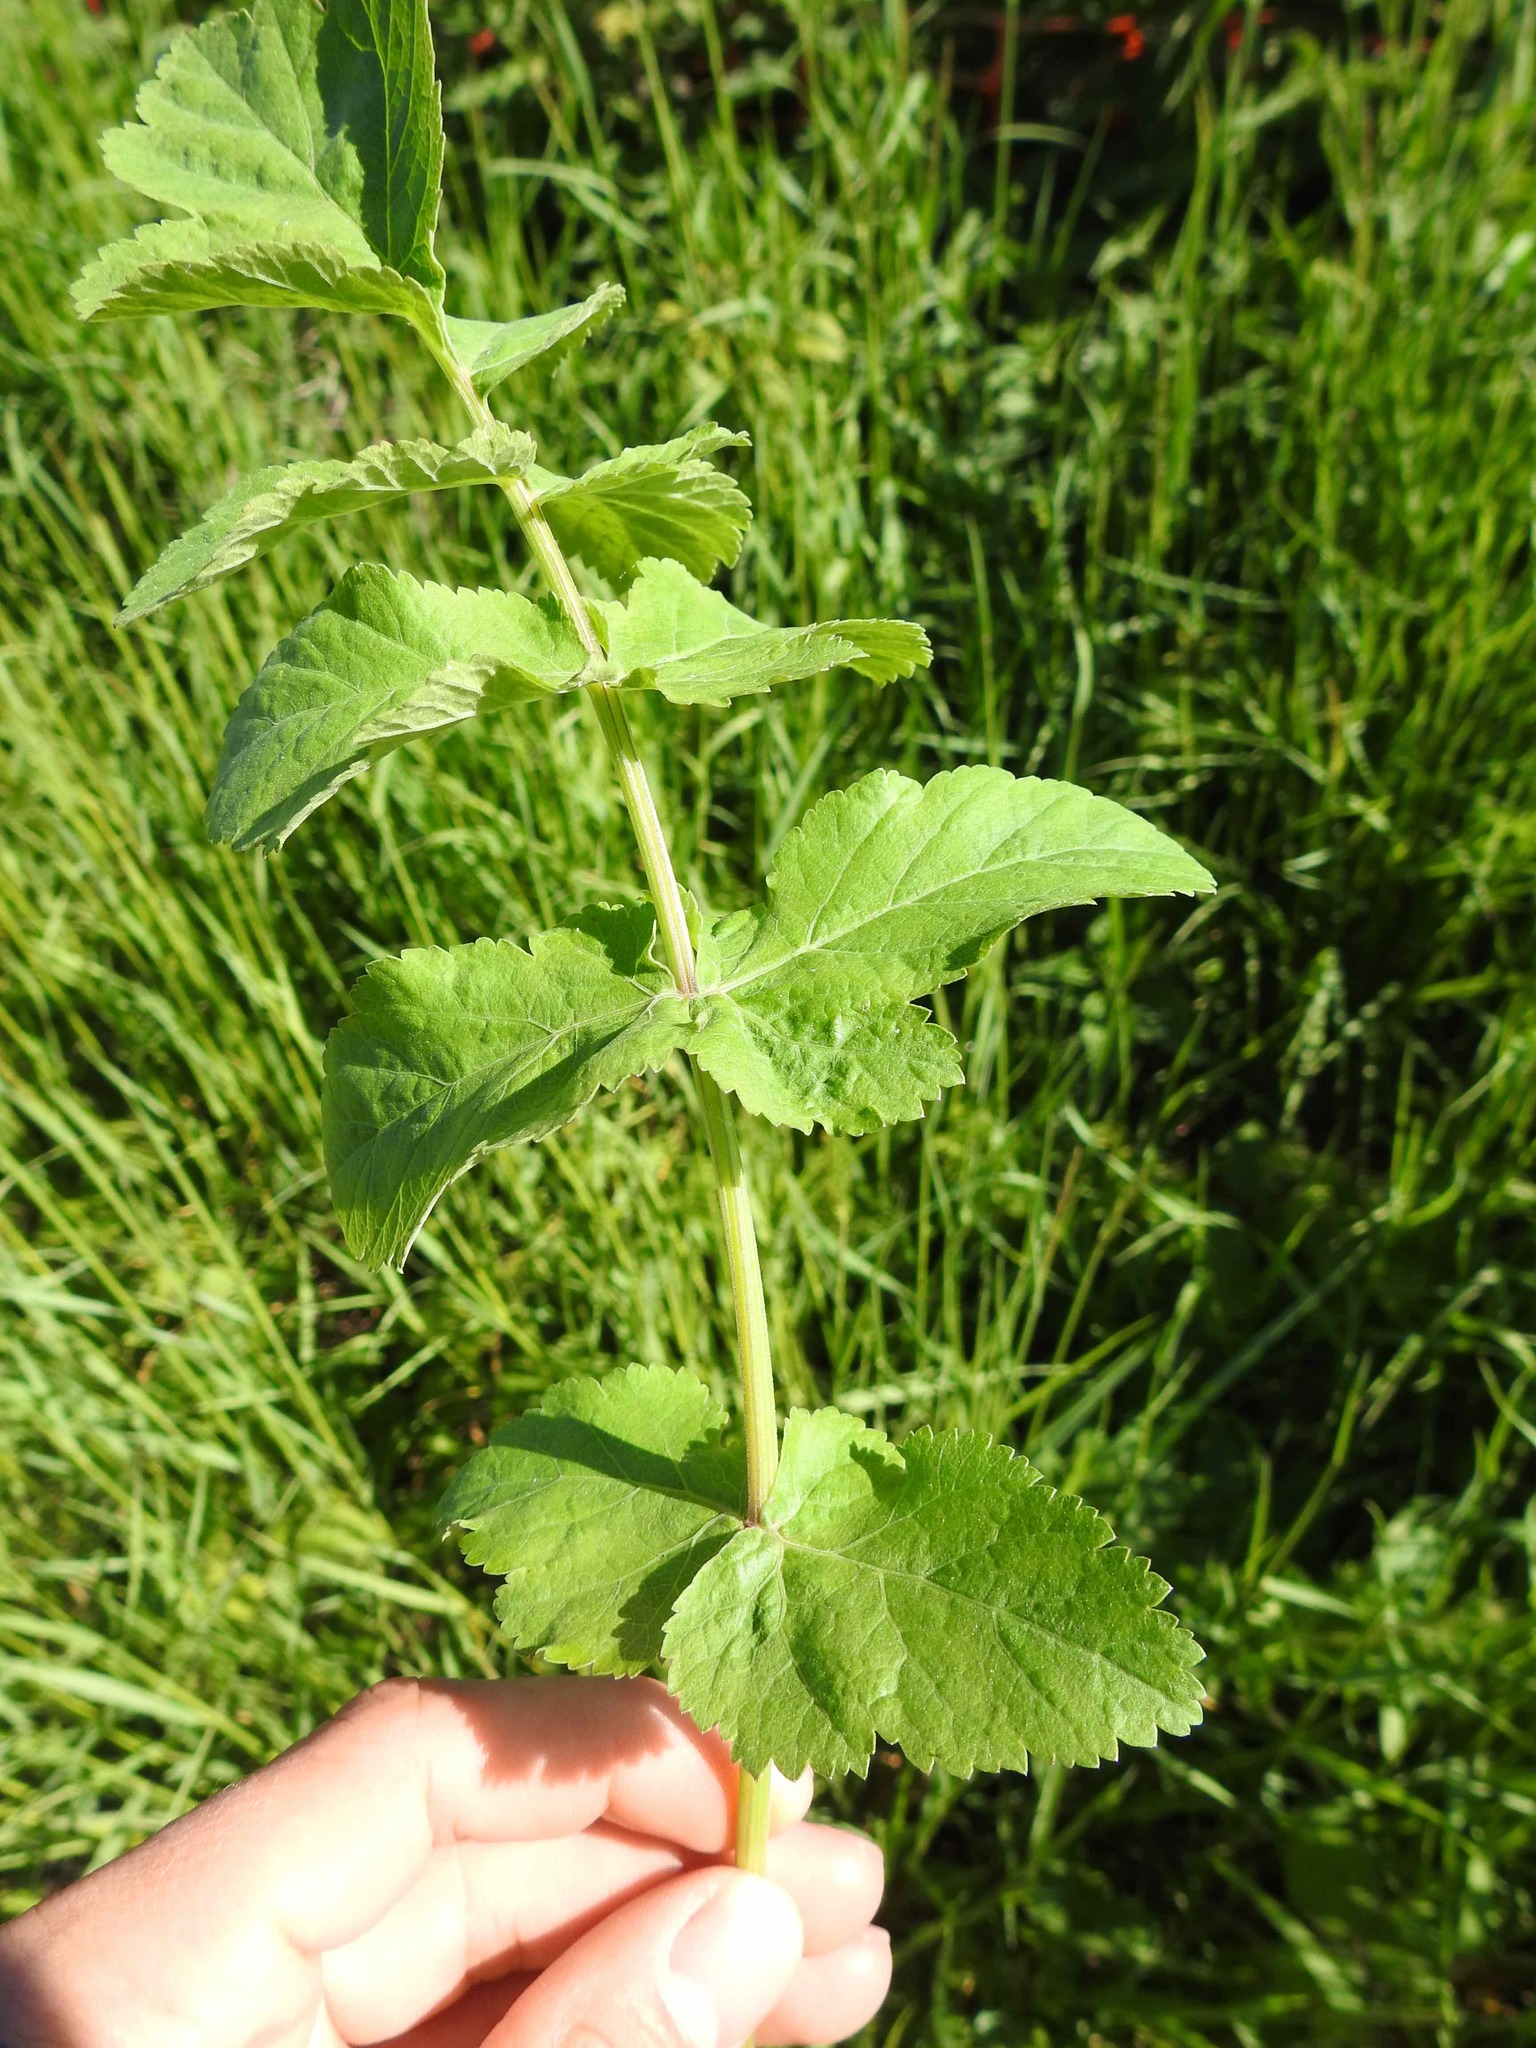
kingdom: Plantae
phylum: Tracheophyta
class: Magnoliopsida
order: Apiales
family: Apiaceae
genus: Pastinaca
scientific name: Pastinaca sativa
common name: Wild parsnip
